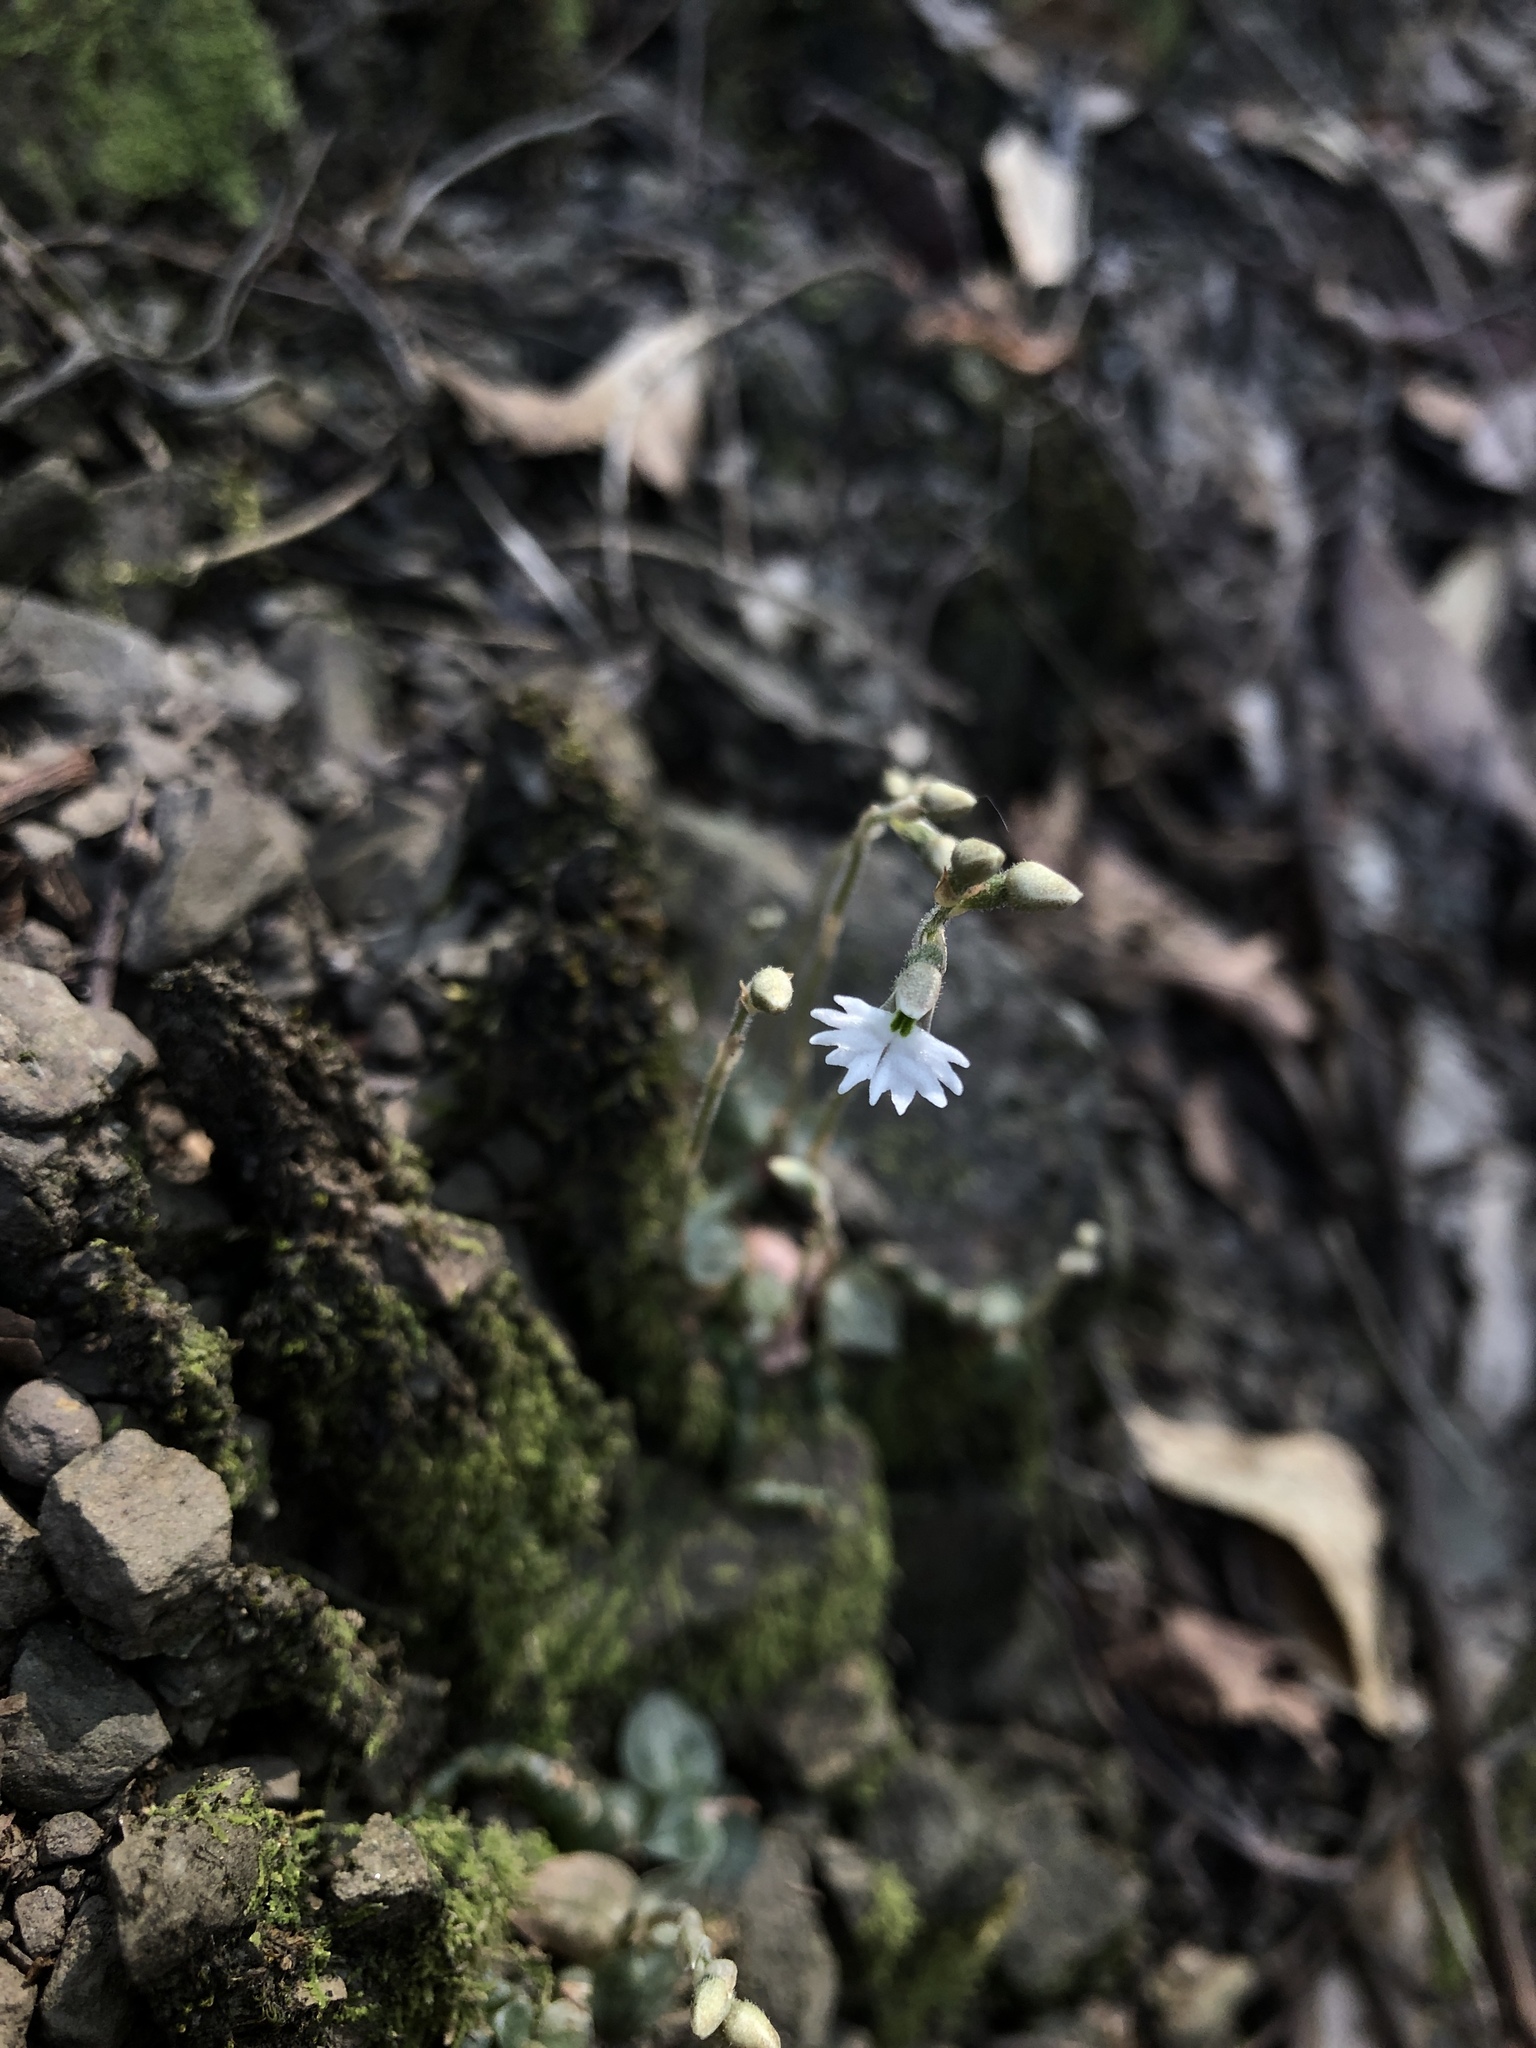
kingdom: Plantae
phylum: Tracheophyta
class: Liliopsida
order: Asparagales
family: Orchidaceae
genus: Cheirostylis
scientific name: Cheirostylis chinensis
